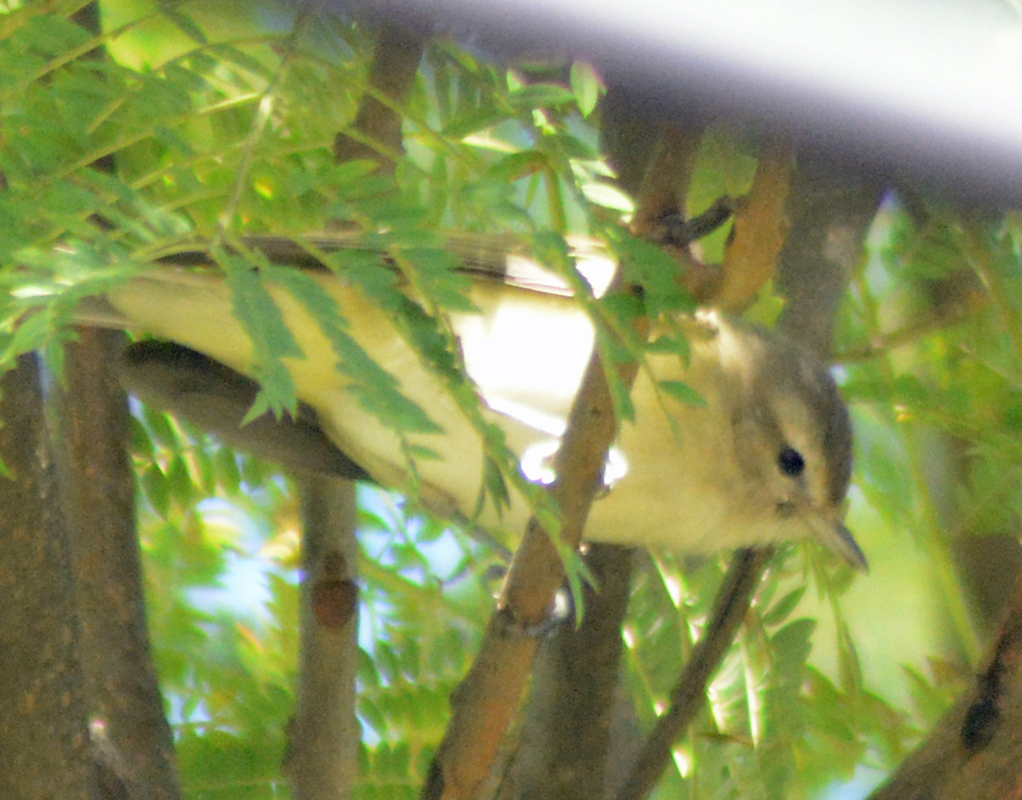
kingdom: Animalia
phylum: Chordata
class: Aves
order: Passeriformes
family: Vireonidae
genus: Vireo
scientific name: Vireo gilvus
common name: Warbling vireo
